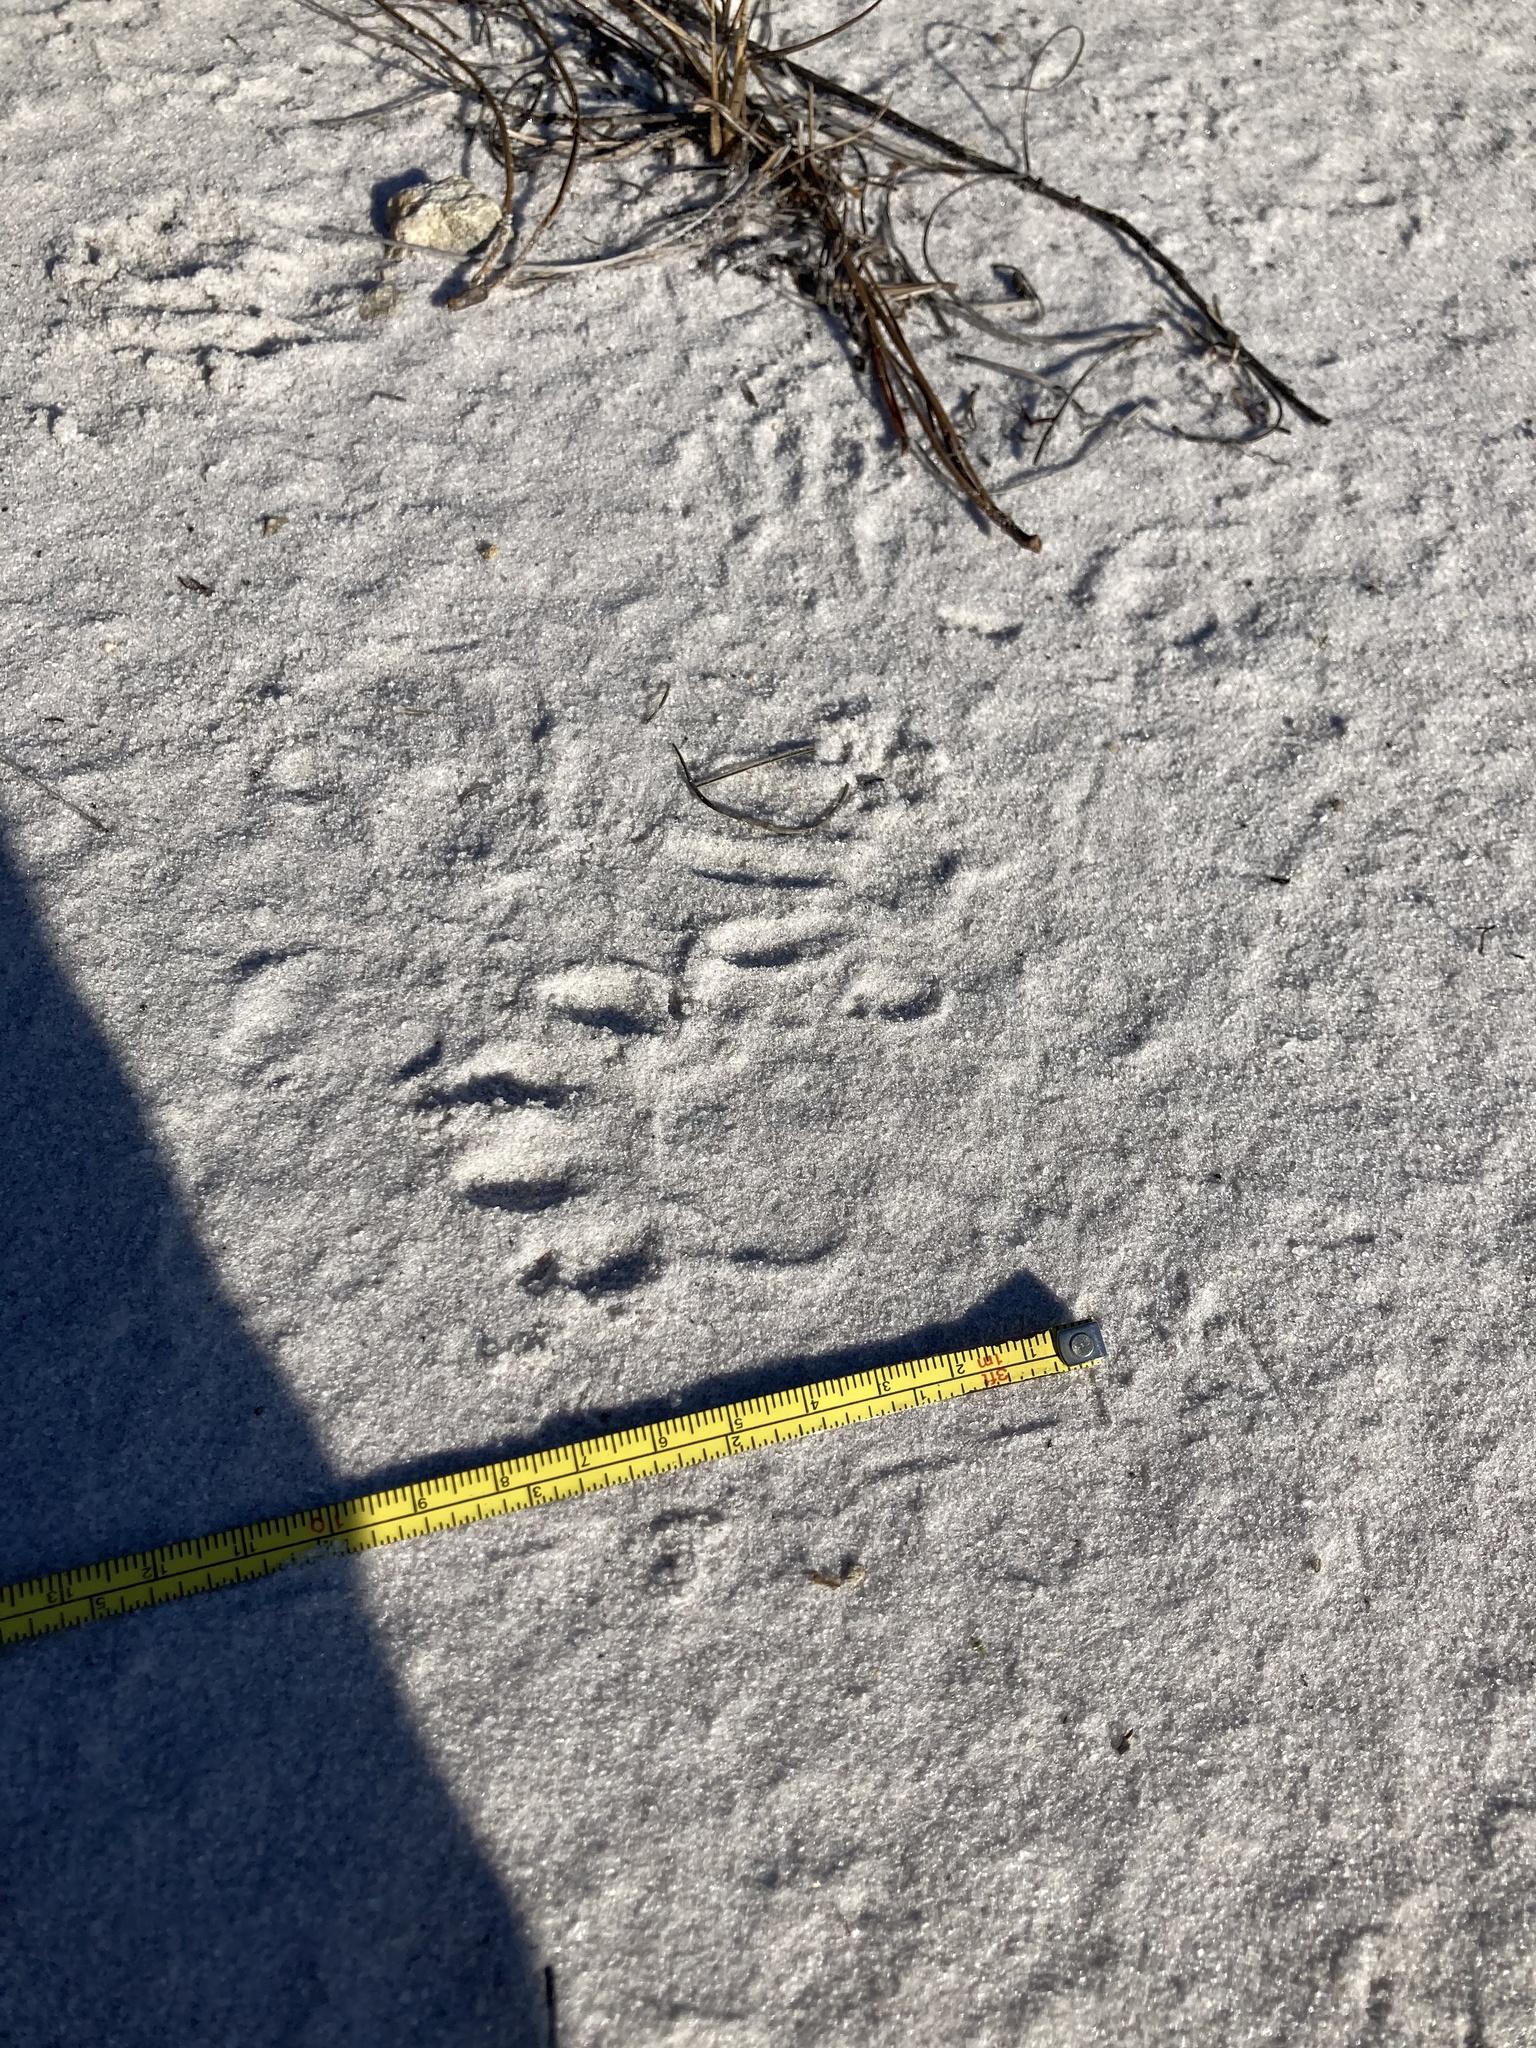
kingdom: Animalia
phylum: Chordata
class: Mammalia
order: Carnivora
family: Procyonidae
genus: Procyon
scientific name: Procyon lotor
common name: Raccoon
